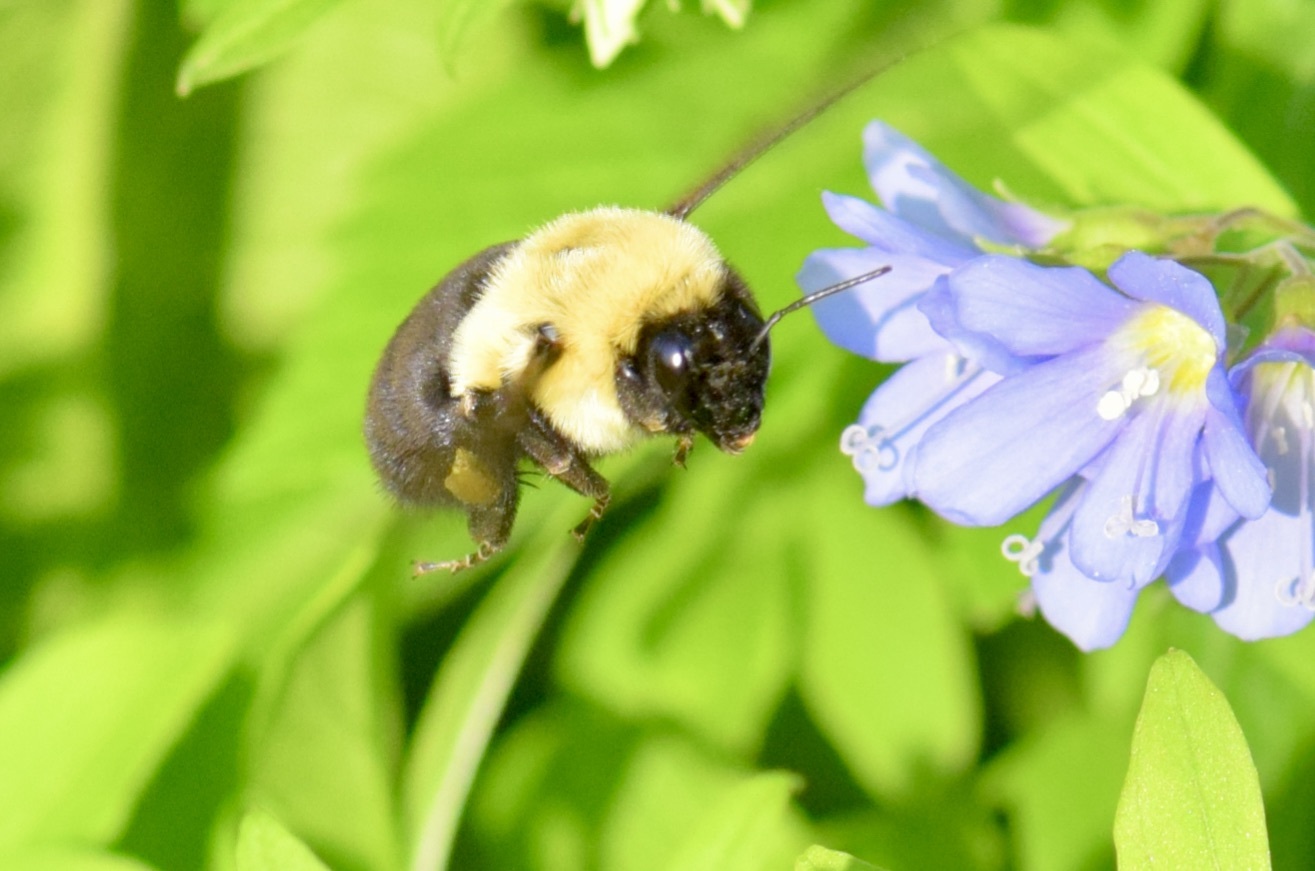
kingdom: Animalia
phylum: Arthropoda
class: Insecta
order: Hymenoptera
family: Apidae
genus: Bombus
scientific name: Bombus impatiens
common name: Common eastern bumble bee
